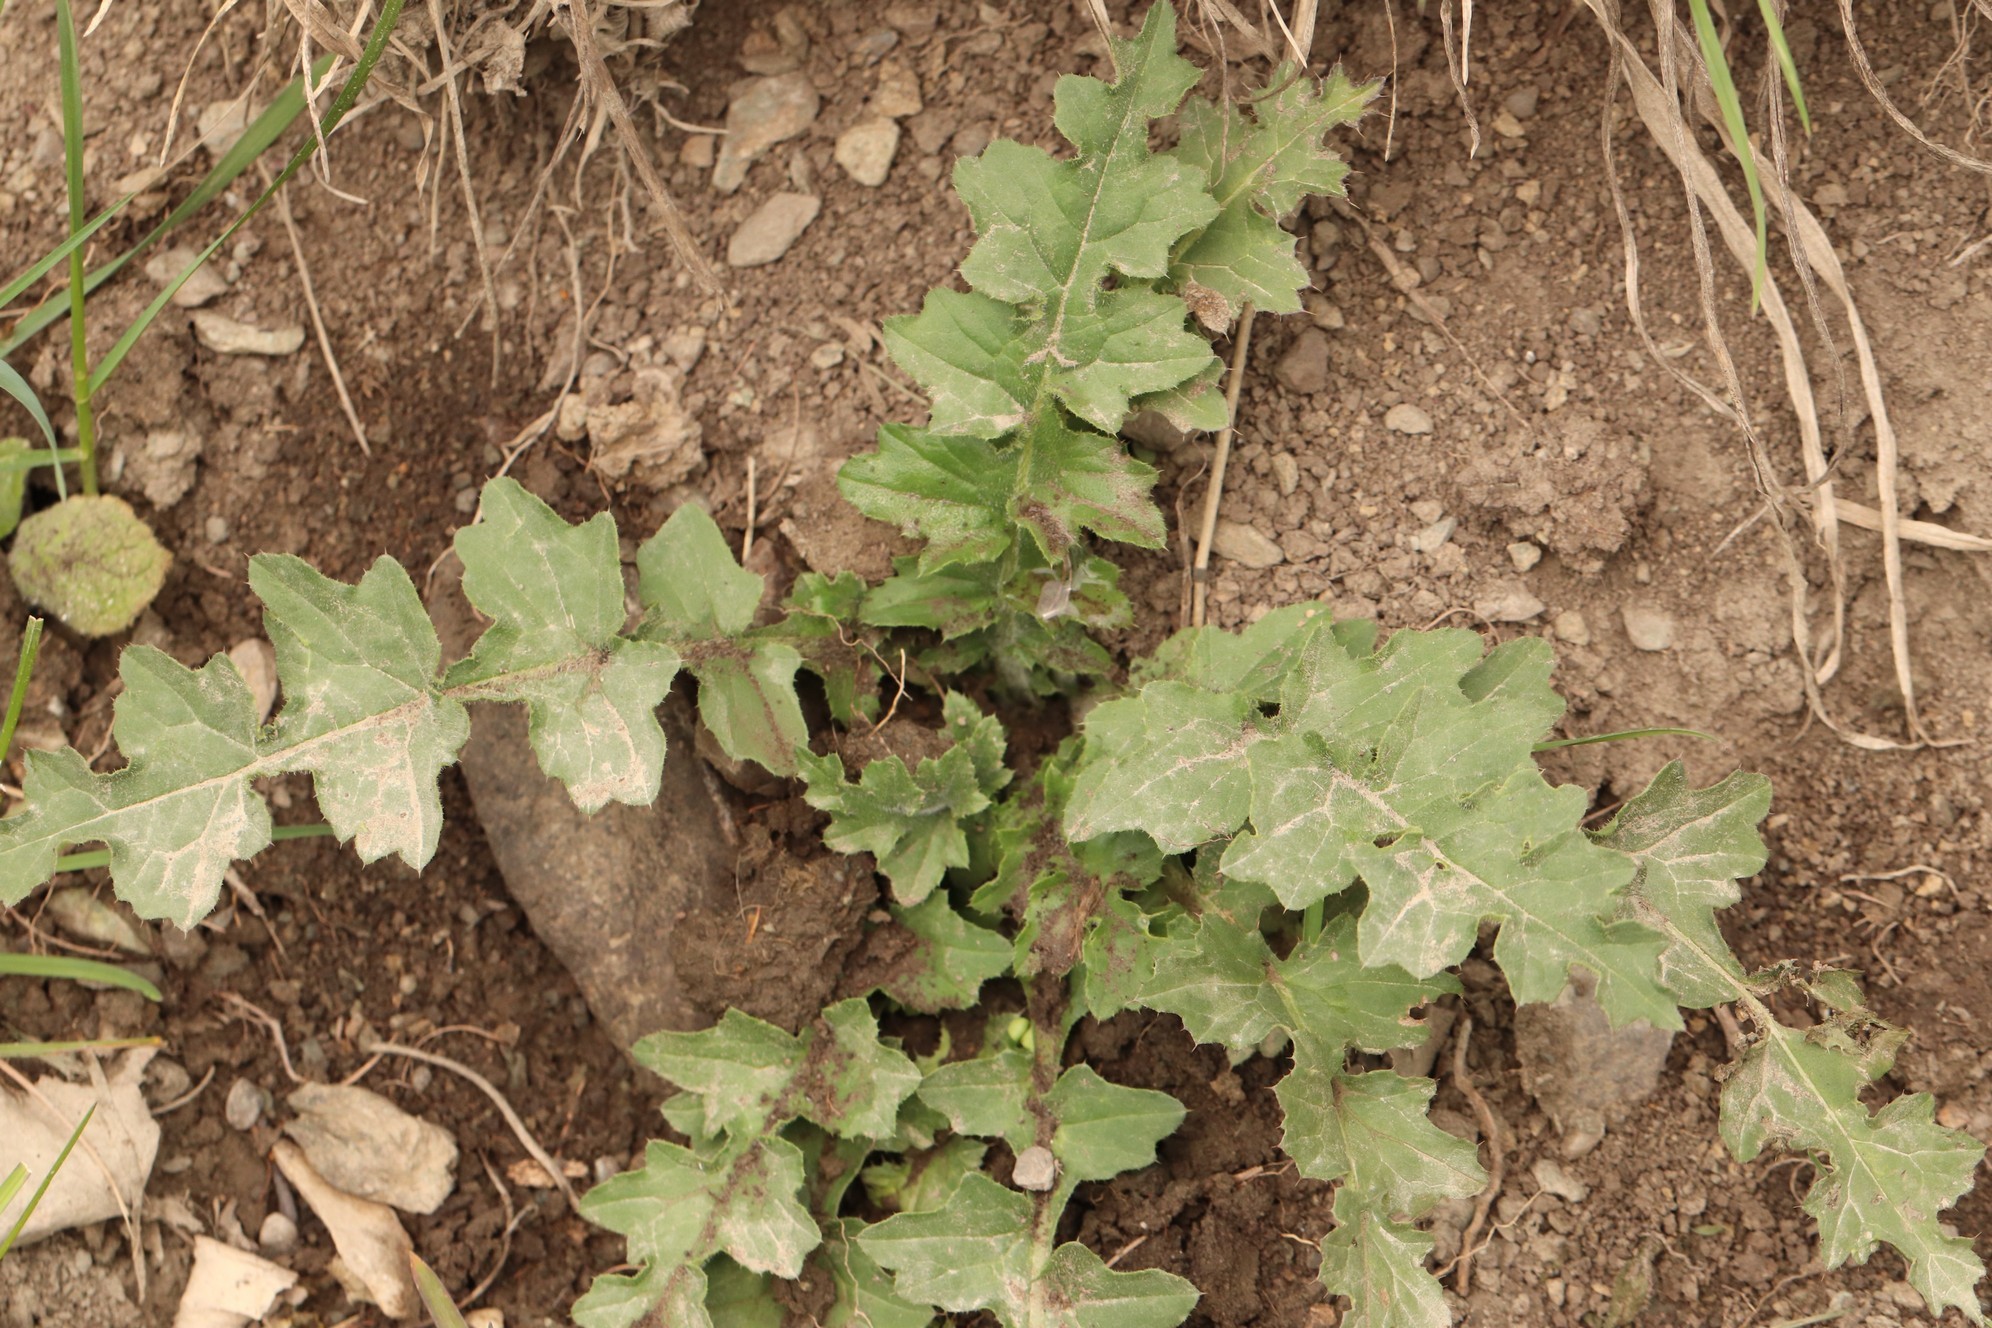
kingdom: Plantae
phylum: Tracheophyta
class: Magnoliopsida
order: Asterales
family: Asteraceae
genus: Carduus
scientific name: Carduus crispus
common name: Welted thistle
